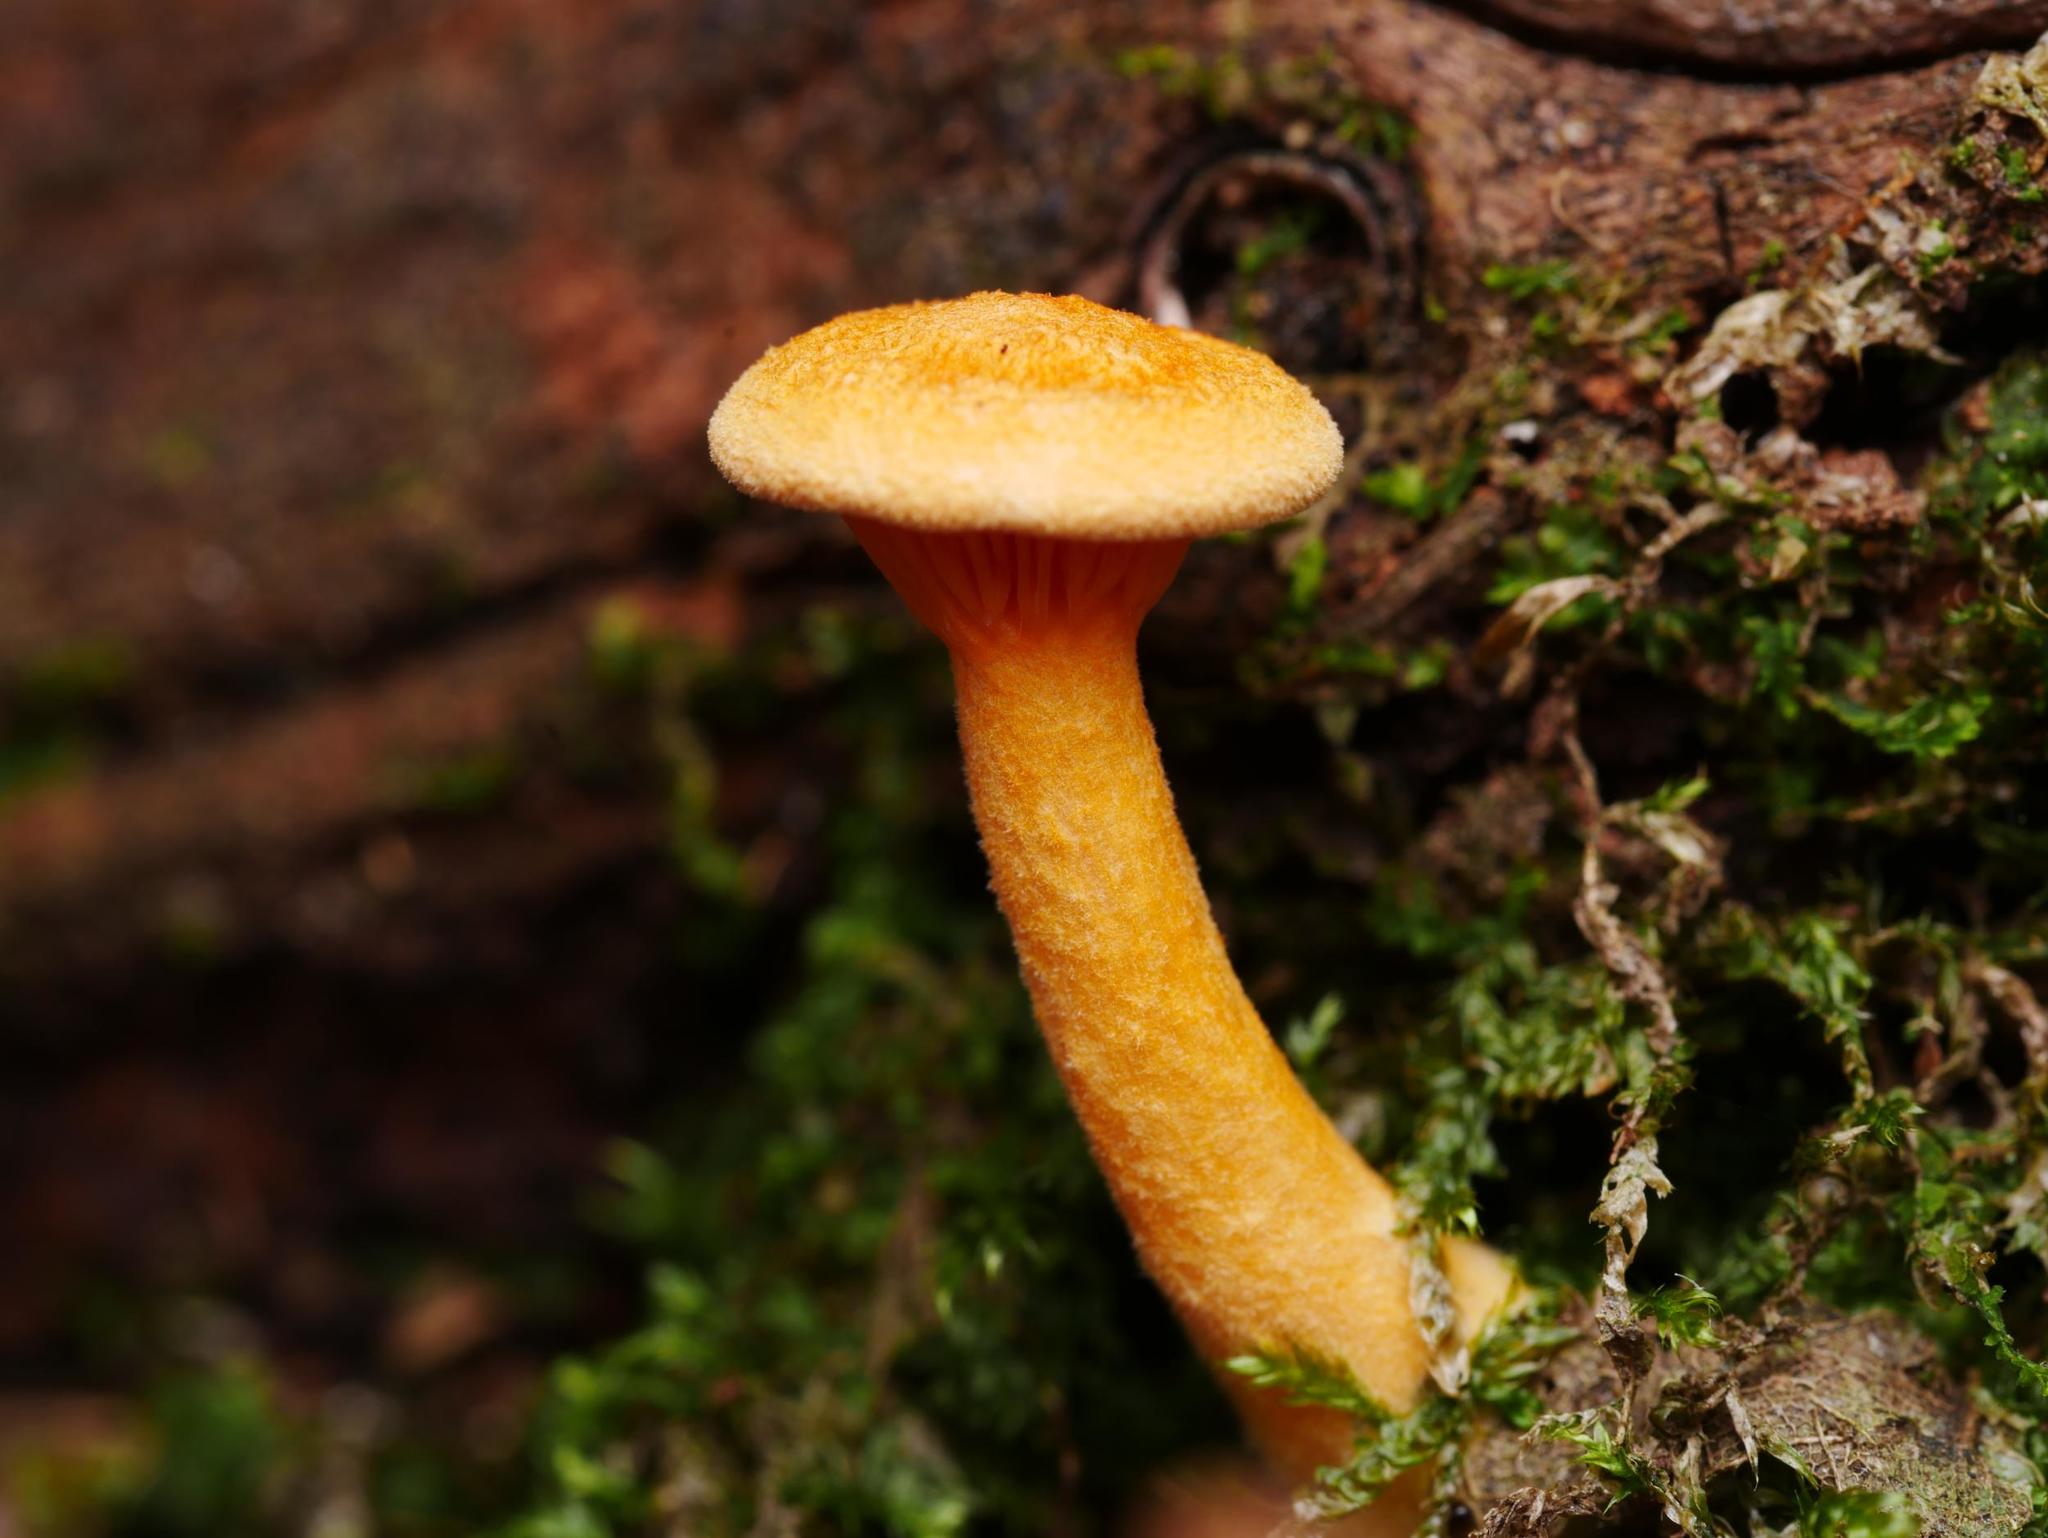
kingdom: Fungi
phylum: Basidiomycota
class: Agaricomycetes
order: Boletales
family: Hygrophoropsidaceae
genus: Hygrophoropsis
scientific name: Hygrophoropsis aurantiaca
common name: False chanterelle
